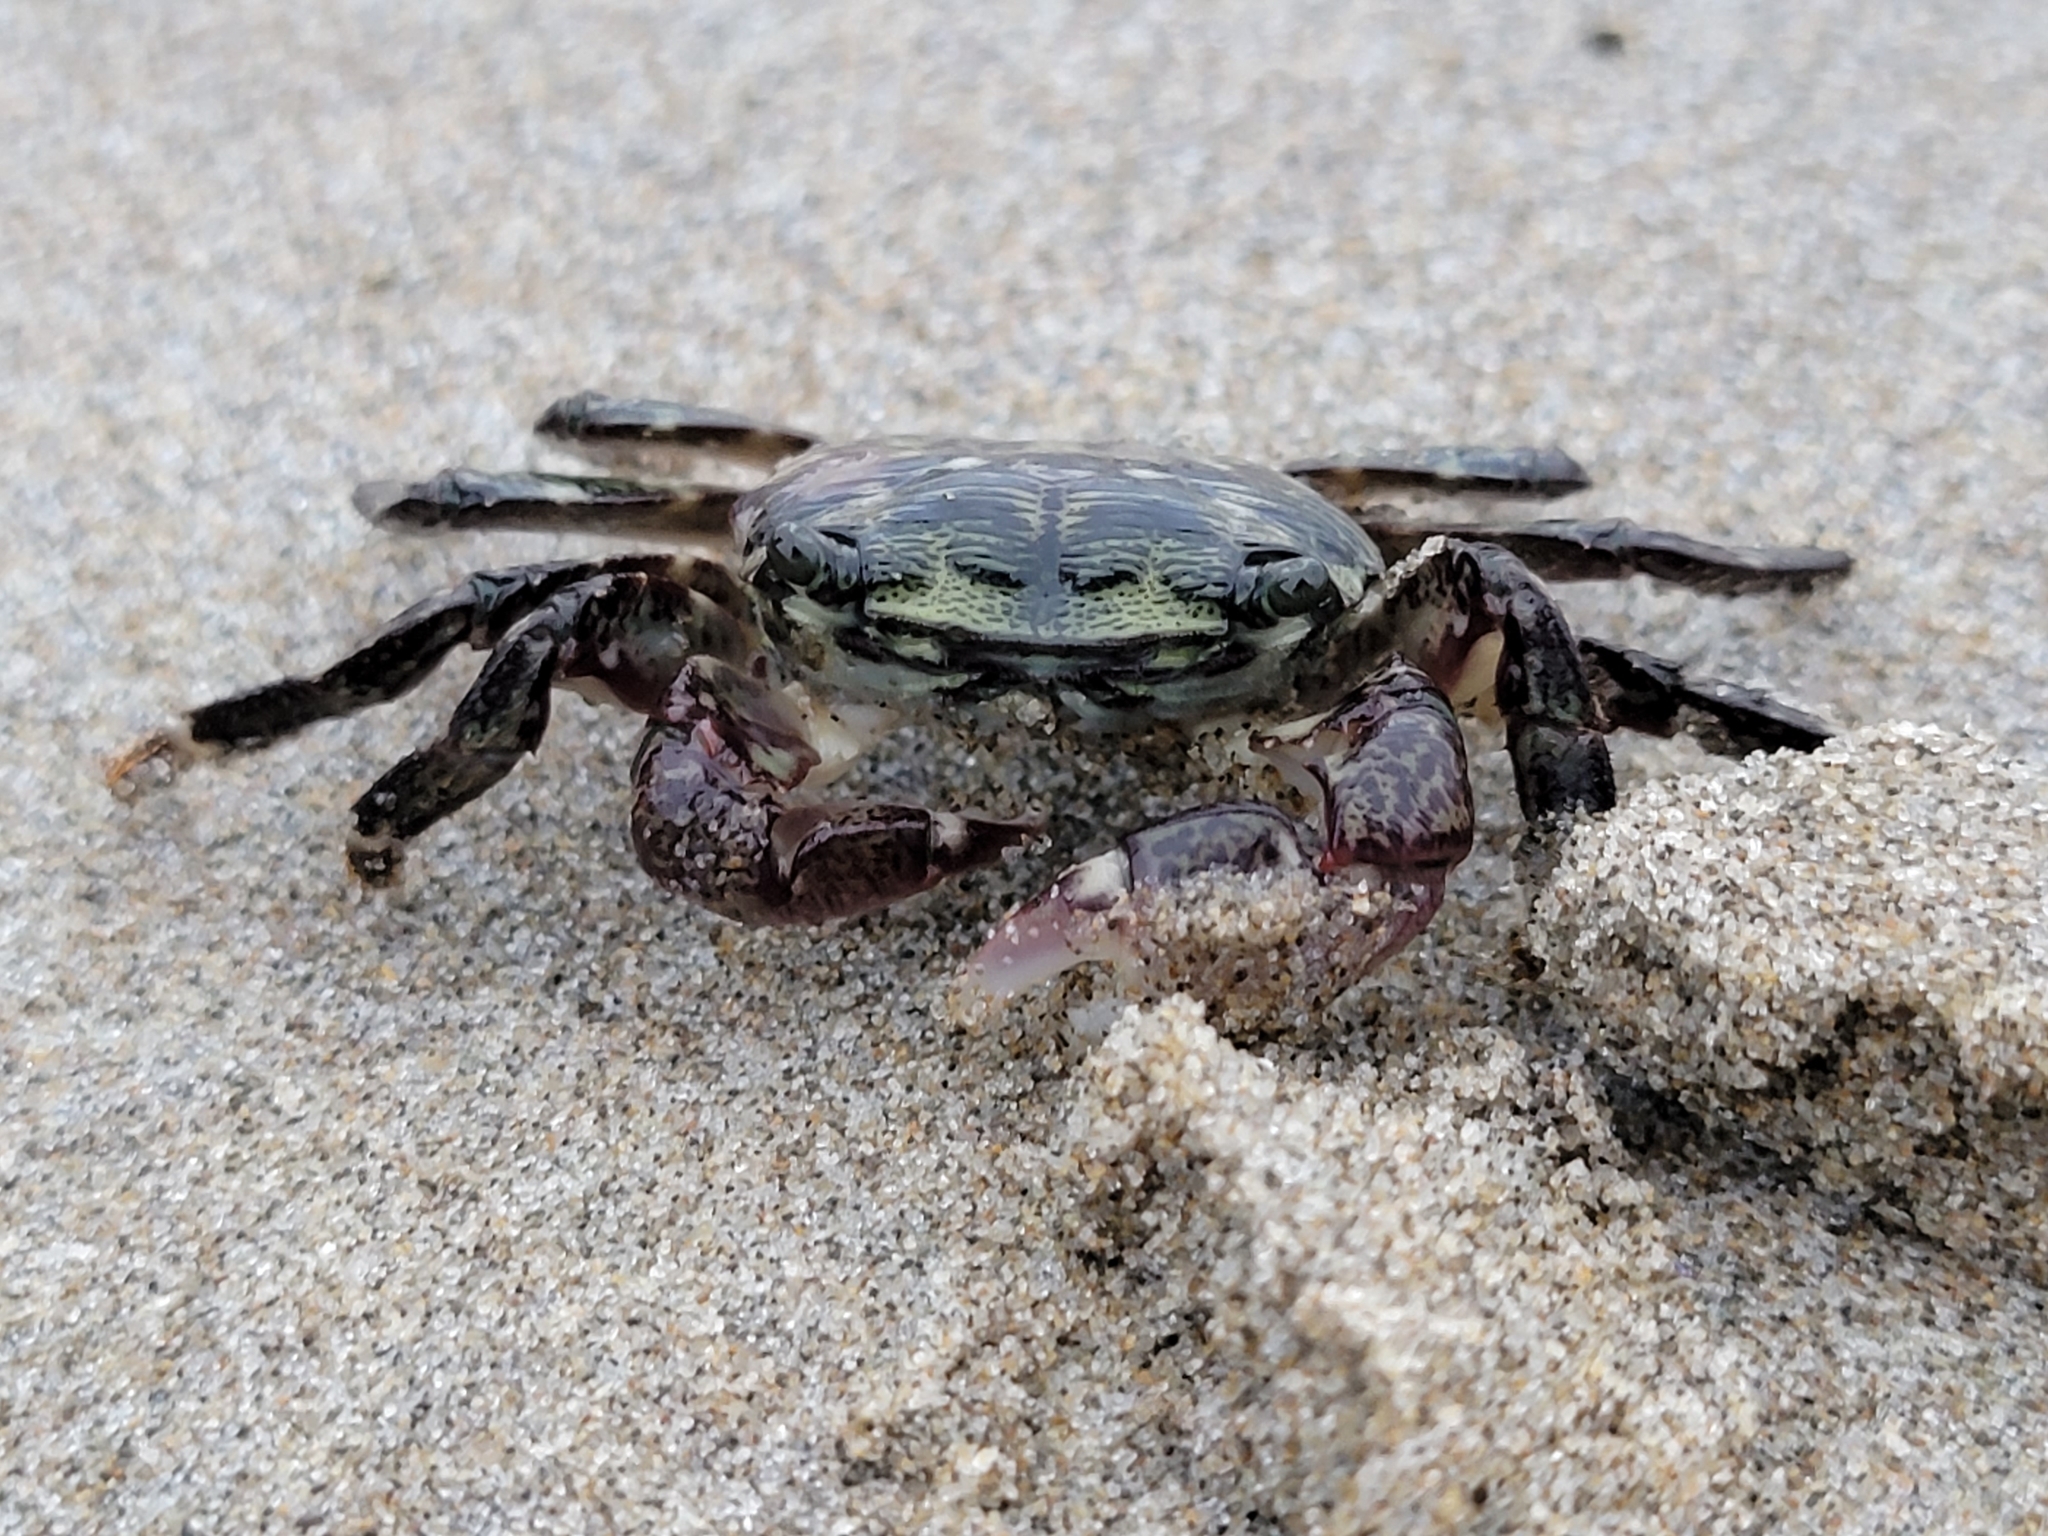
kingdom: Animalia
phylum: Arthropoda
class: Malacostraca
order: Decapoda
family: Grapsidae
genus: Pachygrapsus
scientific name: Pachygrapsus crassipes
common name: Striped shore crab
